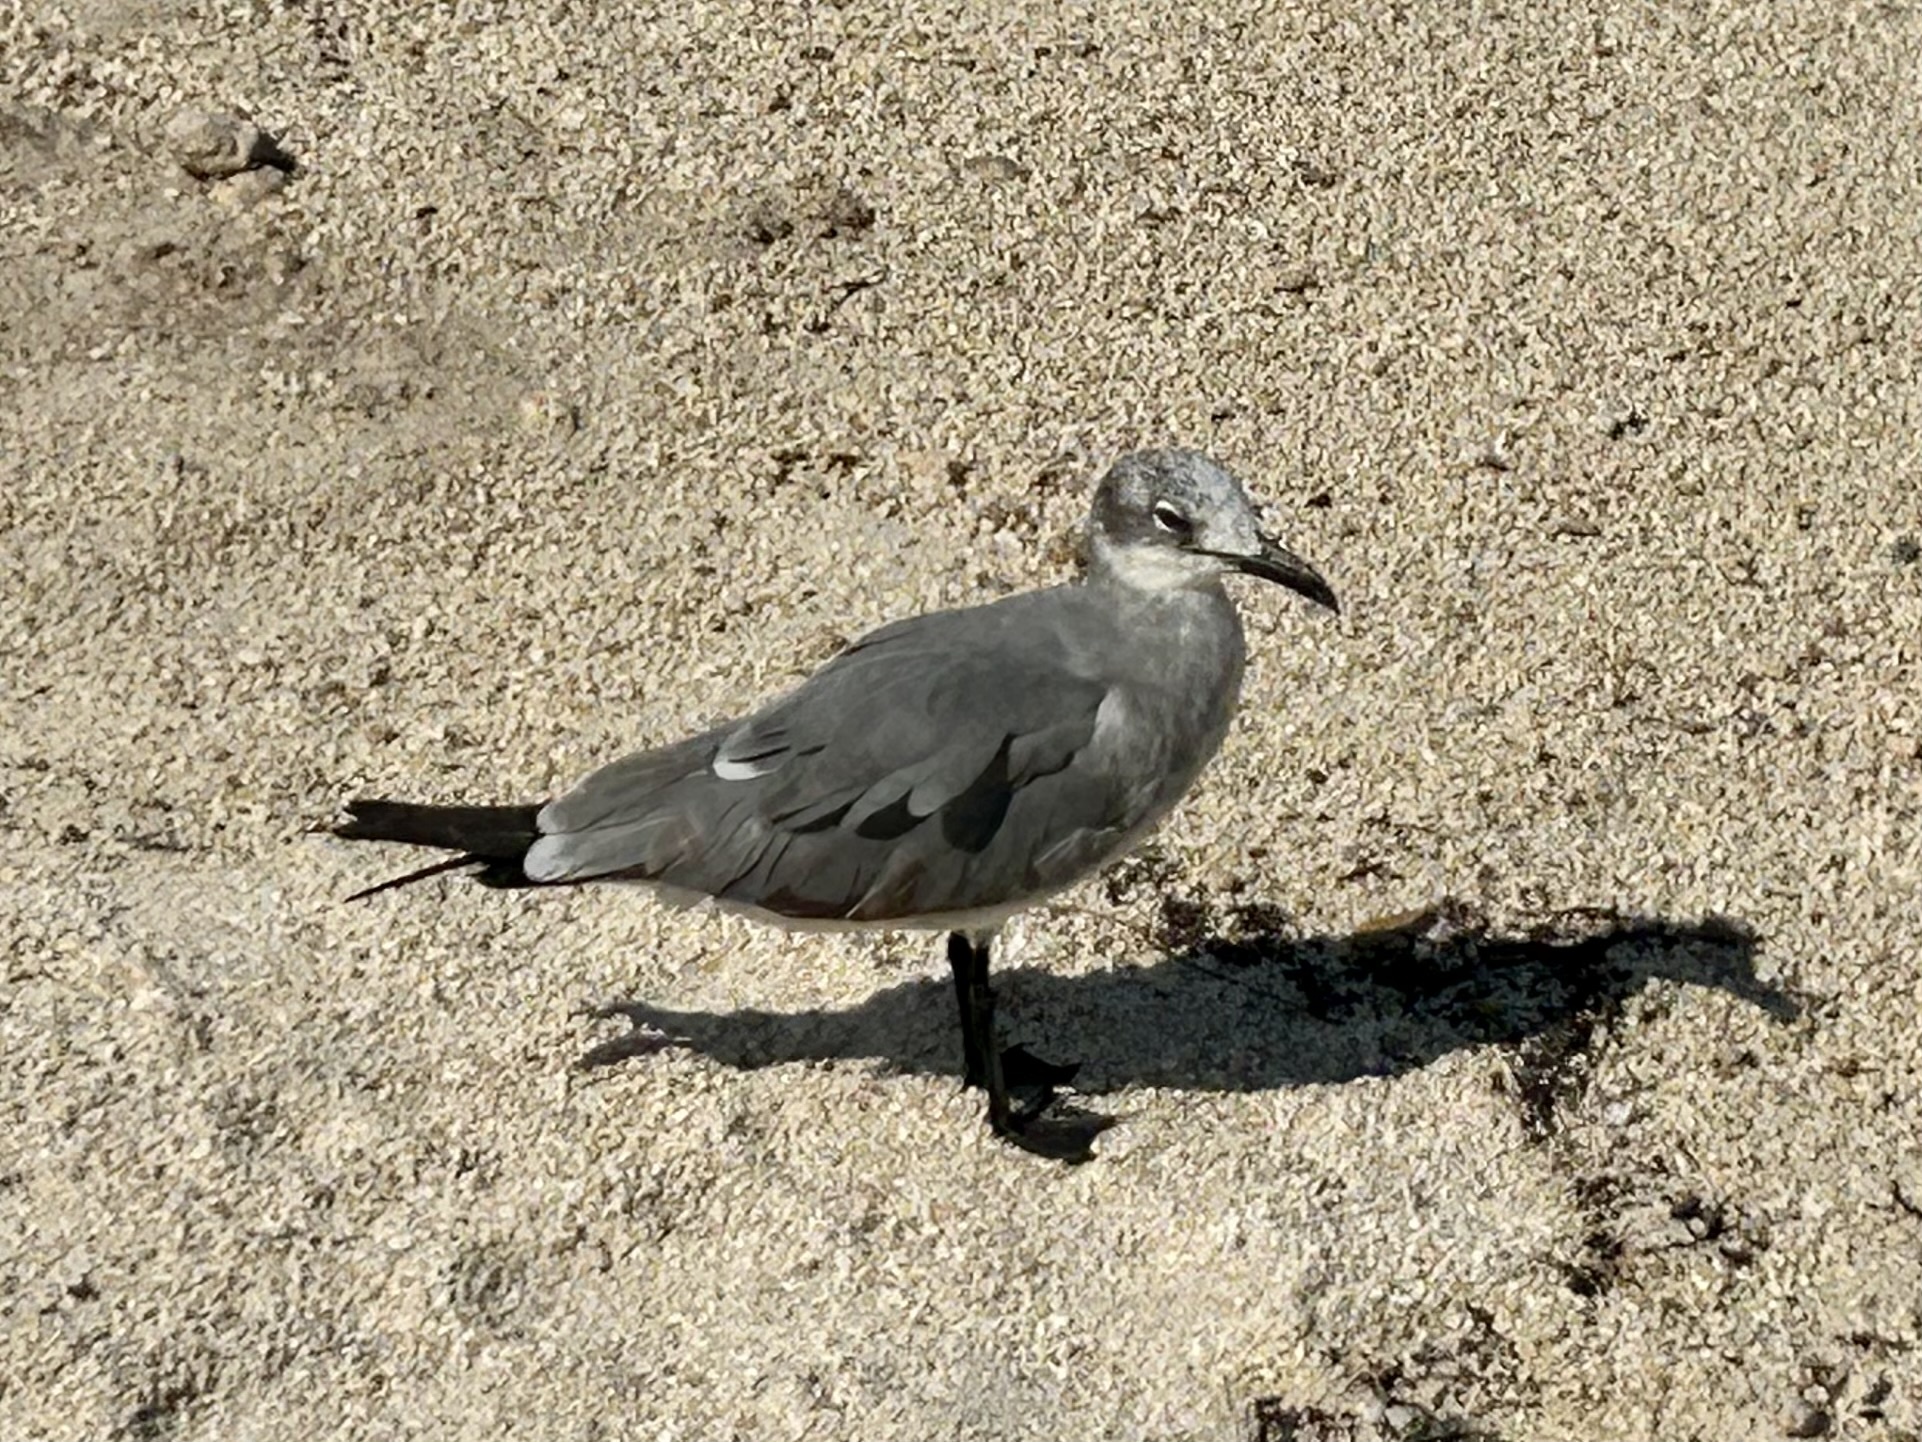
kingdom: Animalia
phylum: Chordata
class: Aves
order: Charadriiformes
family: Laridae
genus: Leucophaeus
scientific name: Leucophaeus atricilla
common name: Laughing gull
